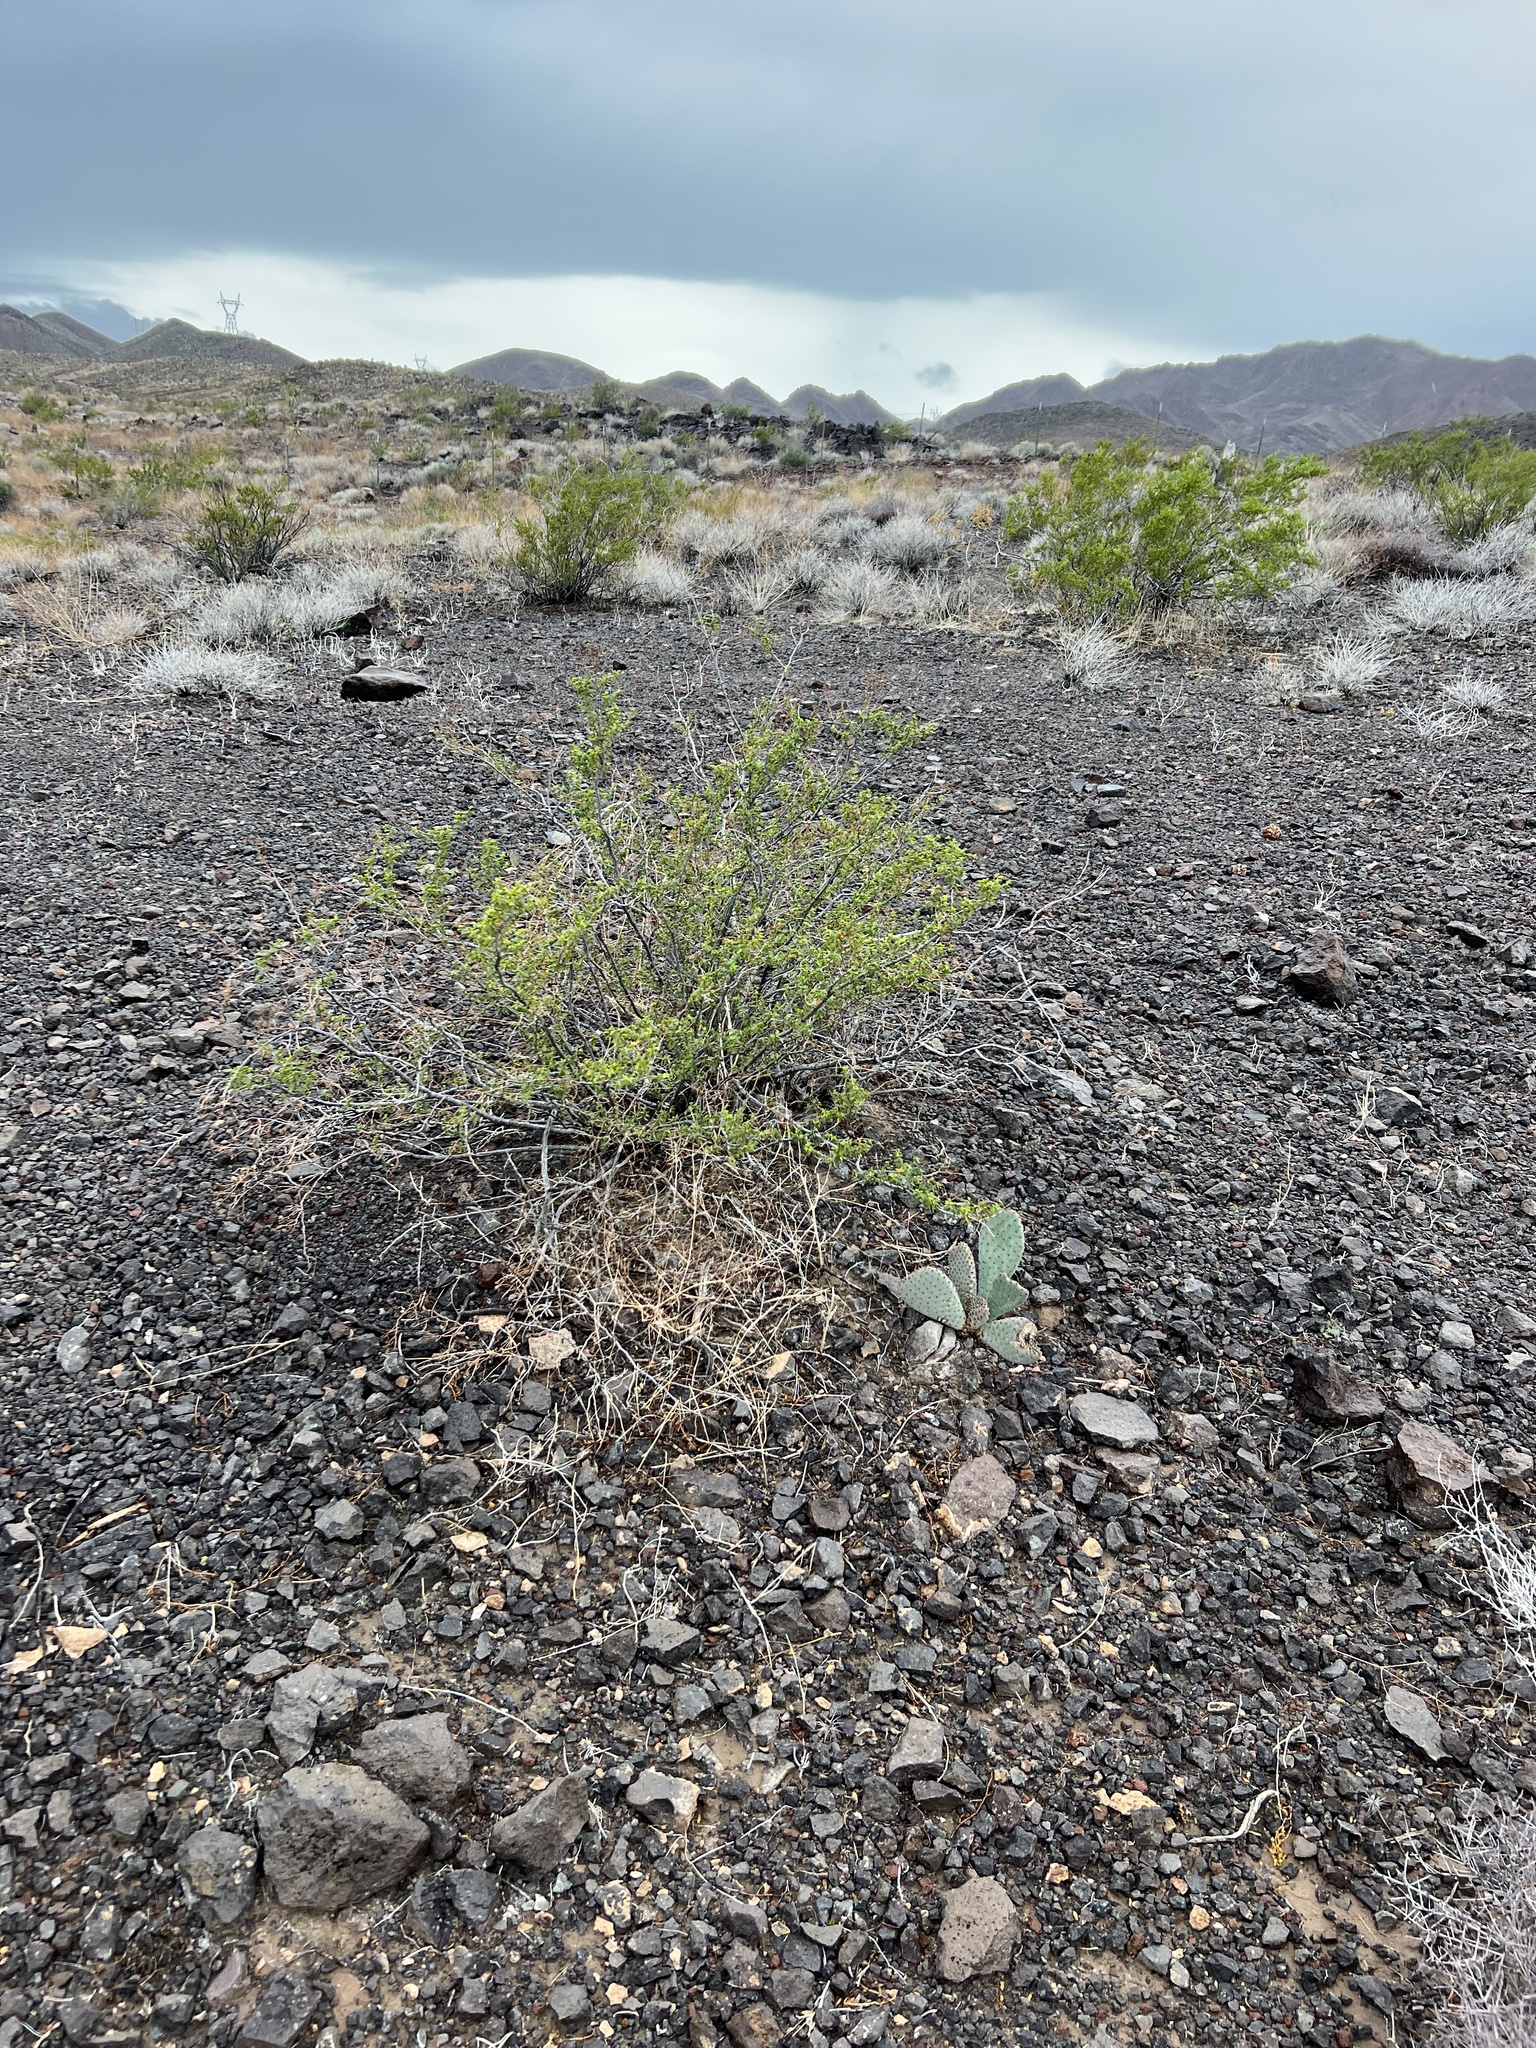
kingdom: Plantae
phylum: Tracheophyta
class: Magnoliopsida
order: Zygophyllales
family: Zygophyllaceae
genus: Larrea
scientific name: Larrea tridentata
